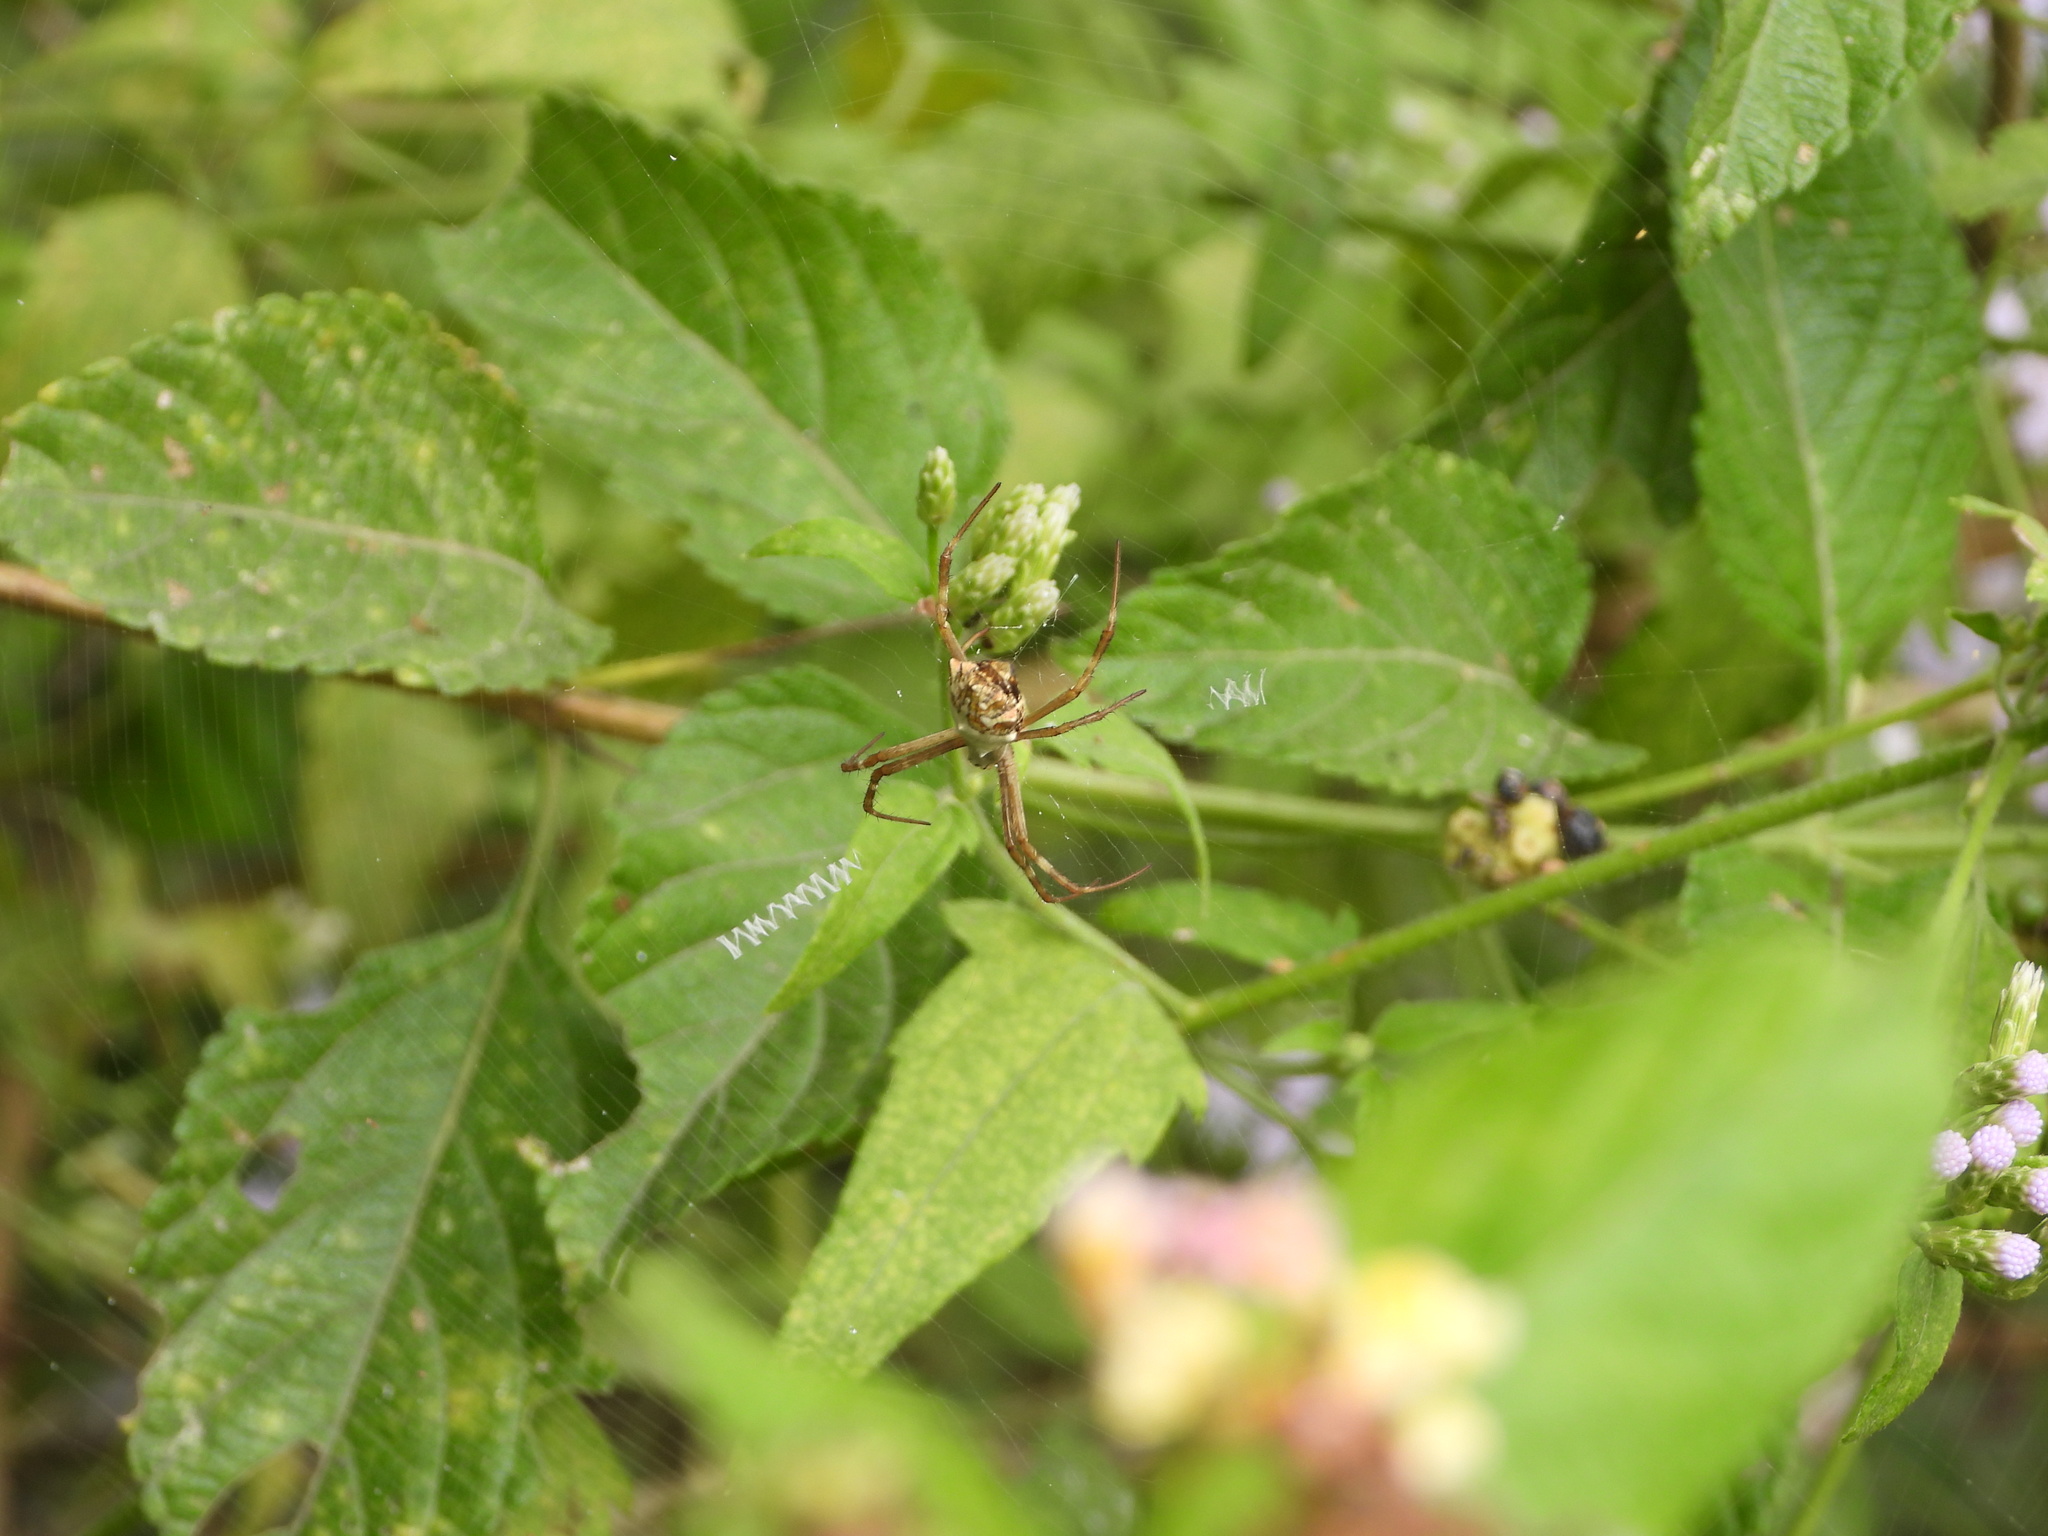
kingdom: Animalia
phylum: Arthropoda
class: Arachnida
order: Araneae
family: Araneidae
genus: Argiope
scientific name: Argiope argentata
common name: Orb weavers
